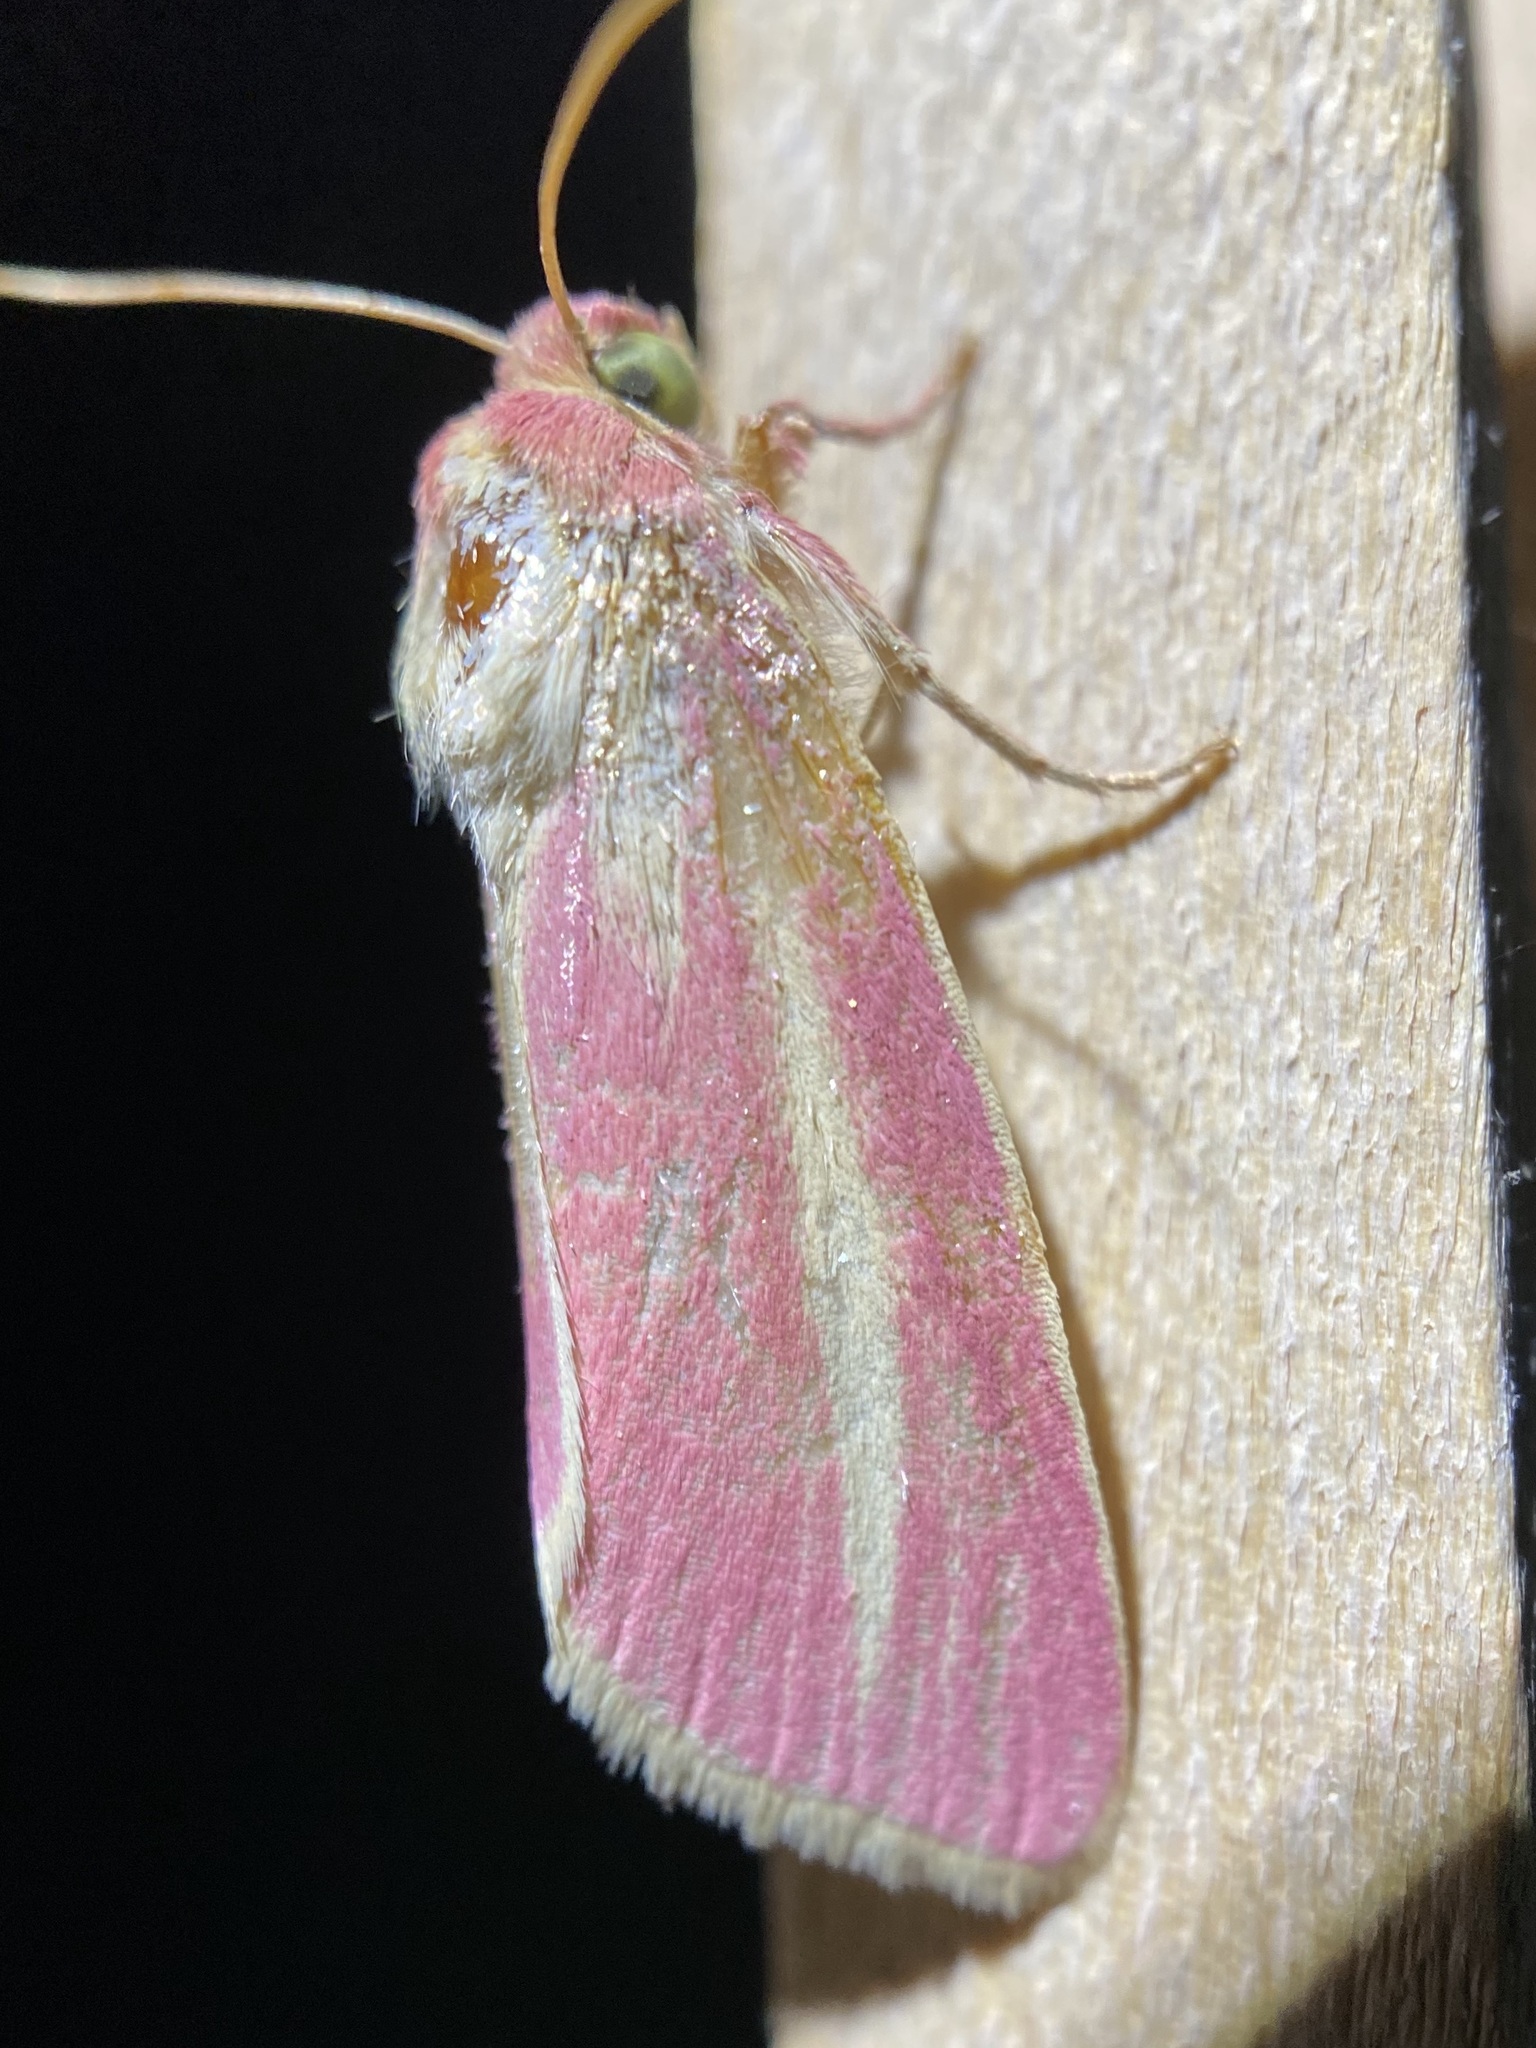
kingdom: Animalia
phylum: Arthropoda
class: Insecta
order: Lepidoptera
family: Noctuidae
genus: Heliocheilus
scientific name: Heliocheilus julia
